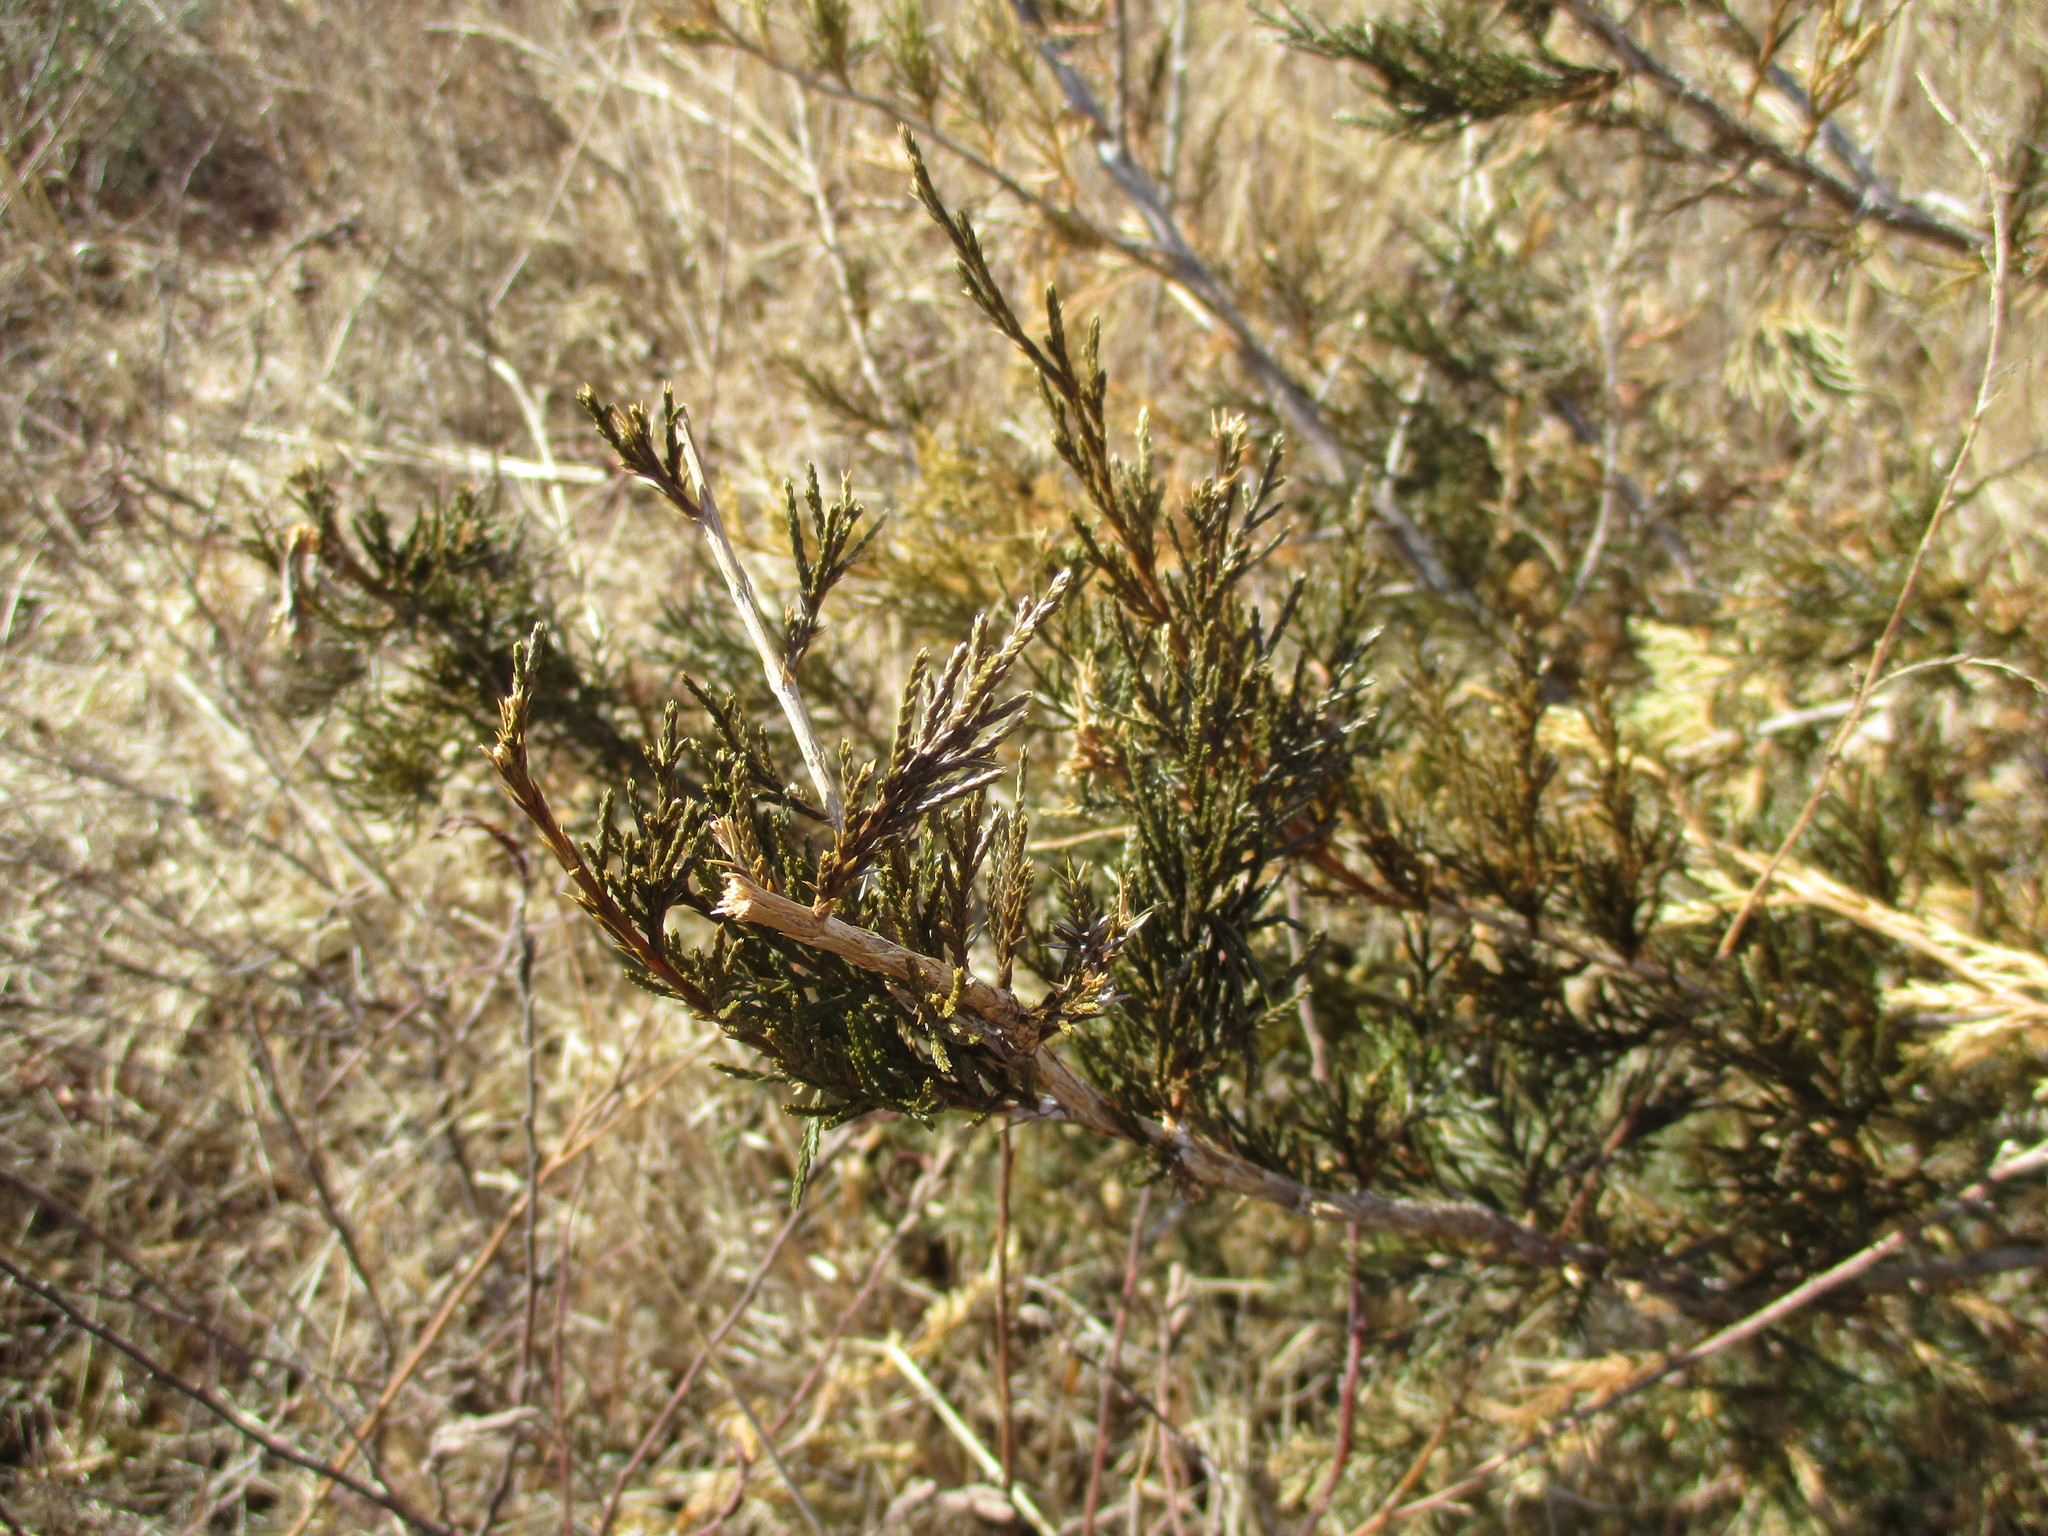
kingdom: Plantae
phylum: Tracheophyta
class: Pinopsida
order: Pinales
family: Cupressaceae
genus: Juniperus
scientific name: Juniperus virginiana
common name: Red juniper
